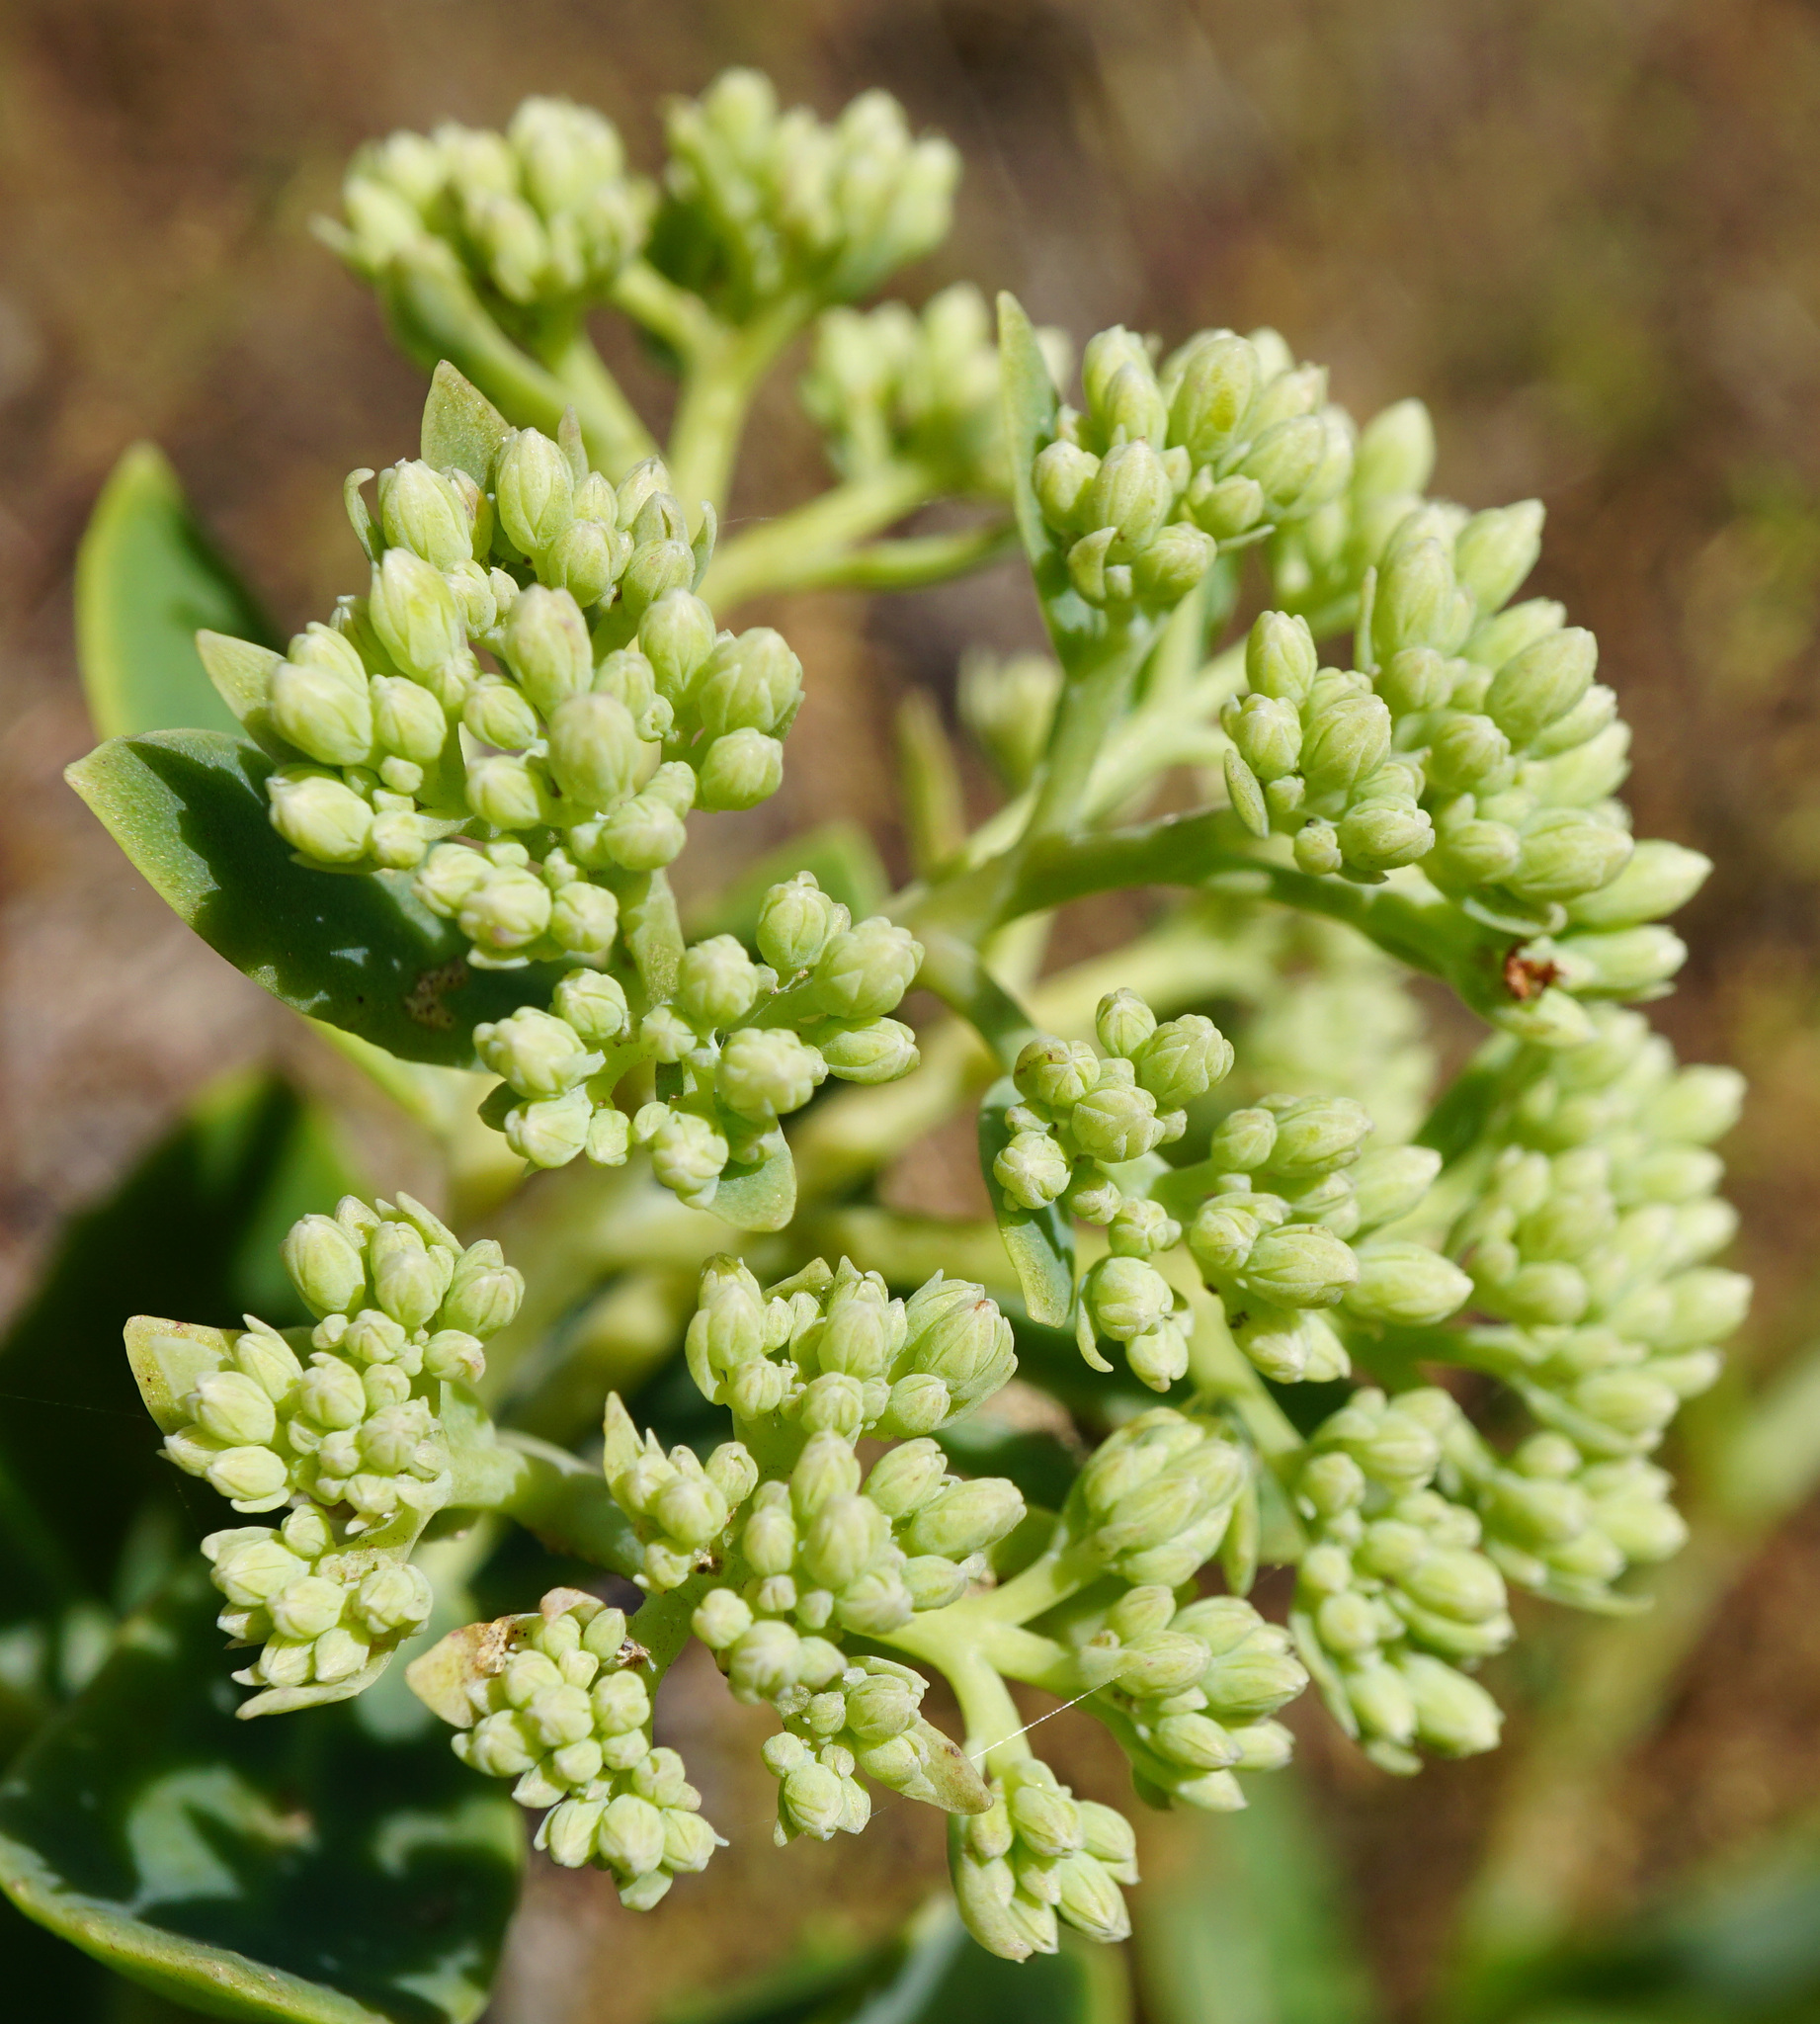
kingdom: Plantae
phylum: Tracheophyta
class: Magnoliopsida
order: Saxifragales
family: Crassulaceae
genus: Hylotelephium
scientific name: Hylotelephium
